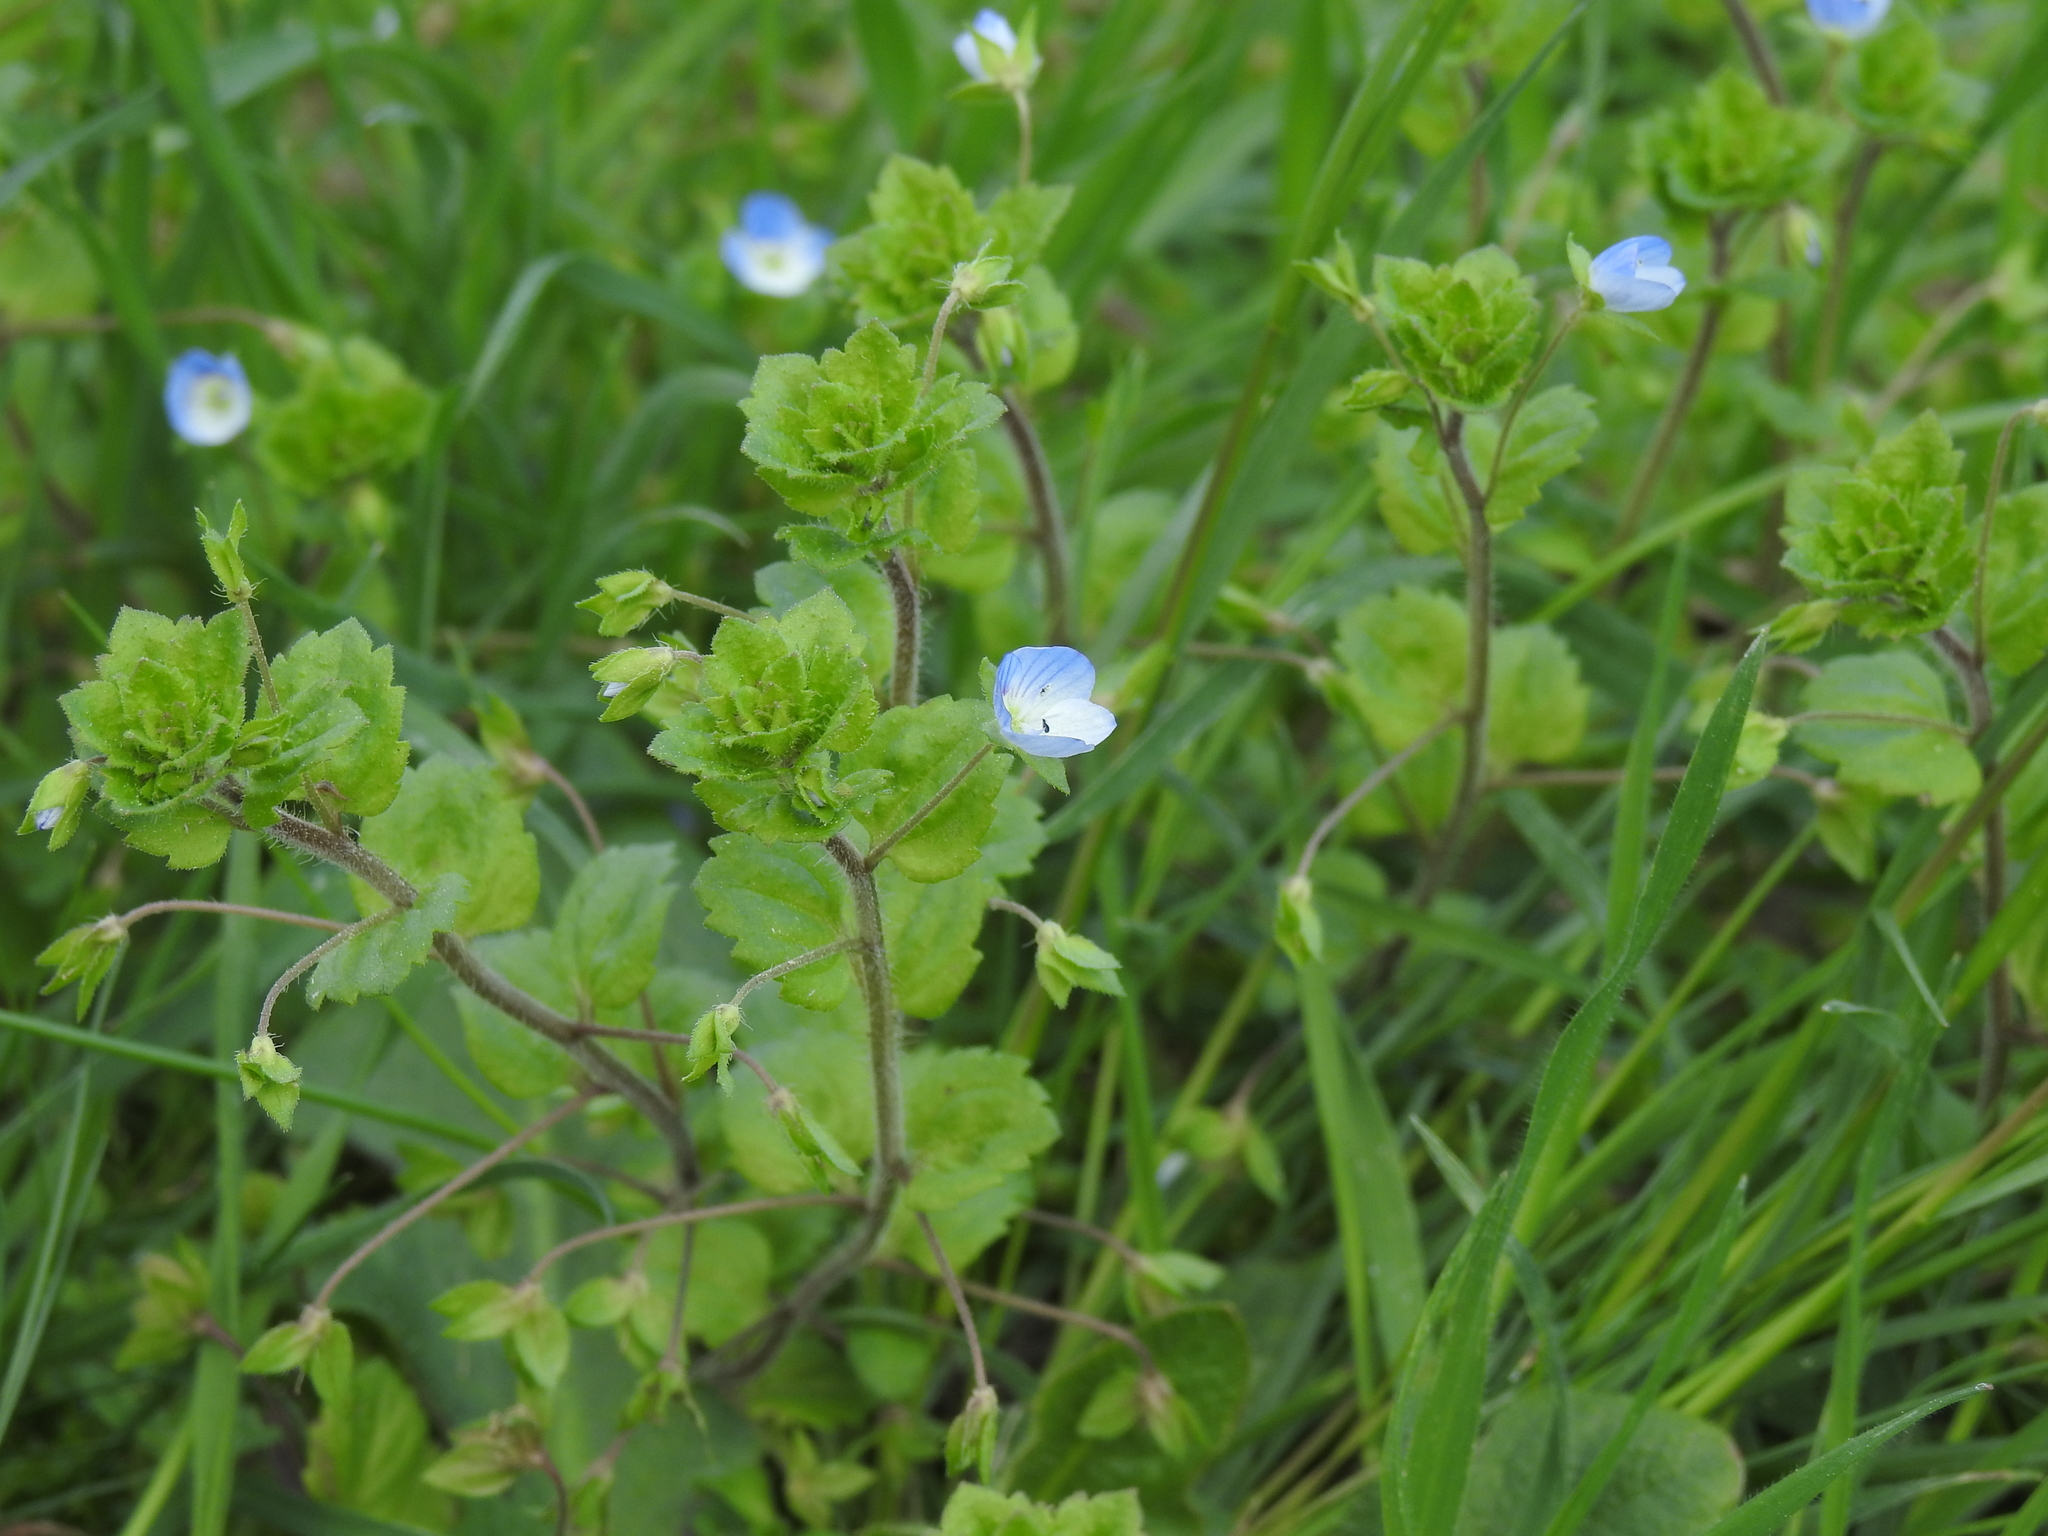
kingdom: Plantae
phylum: Tracheophyta
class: Magnoliopsida
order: Lamiales
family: Plantaginaceae
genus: Veronica
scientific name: Veronica persica
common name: Common field-speedwell
